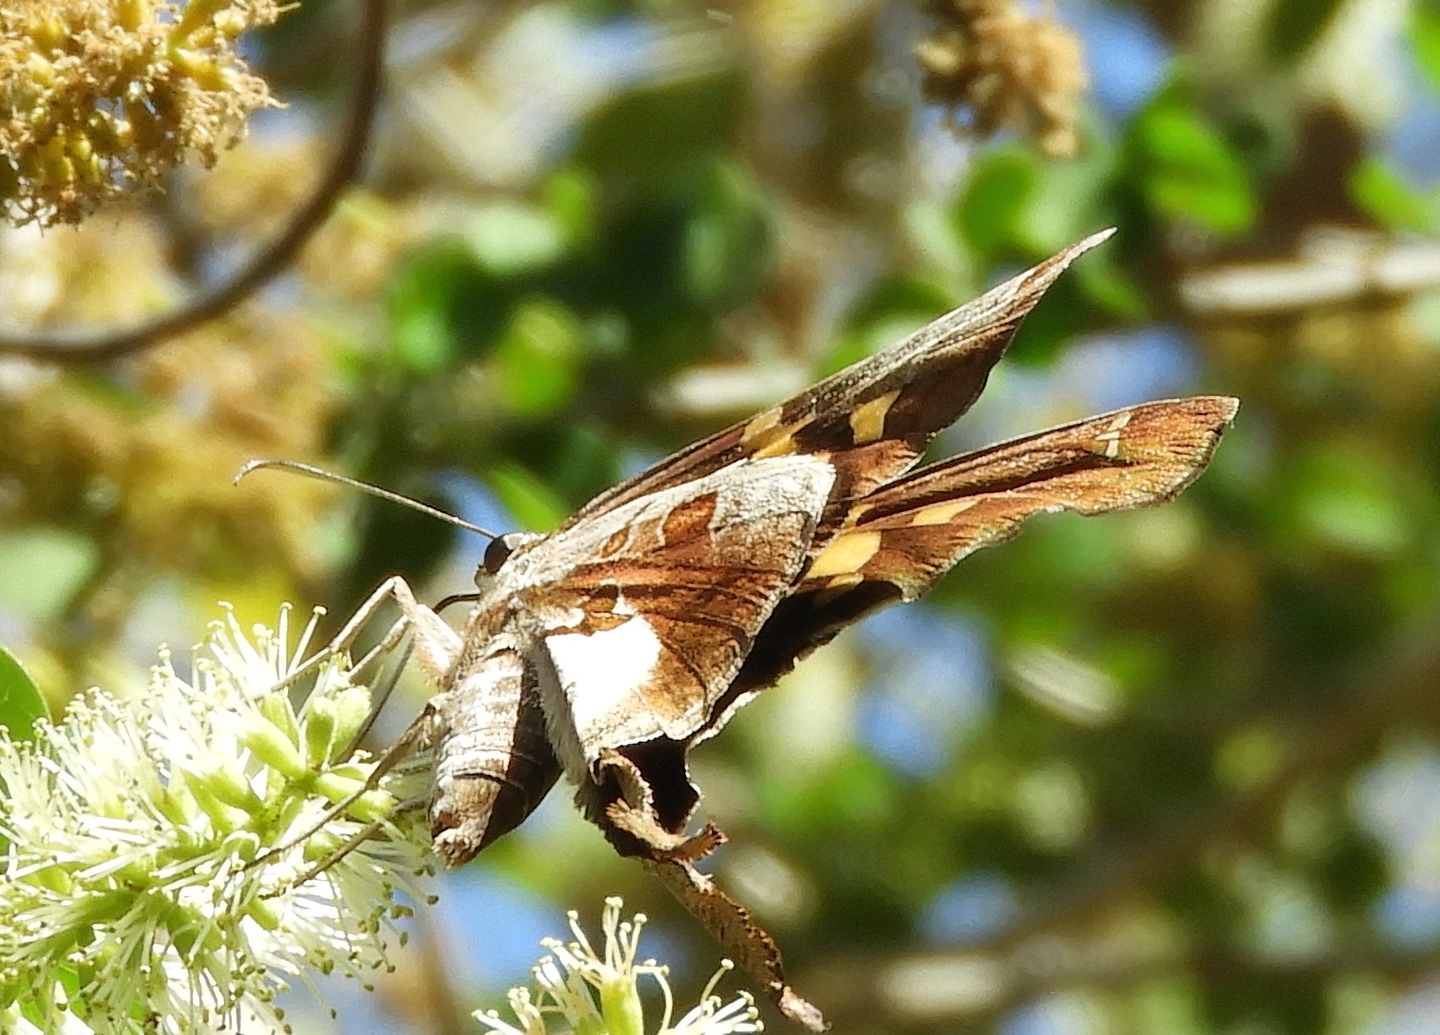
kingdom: Animalia
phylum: Arthropoda
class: Insecta
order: Lepidoptera
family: Hesperiidae
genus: Chioides
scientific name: Chioides zilpa
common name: Zilpa longtail
